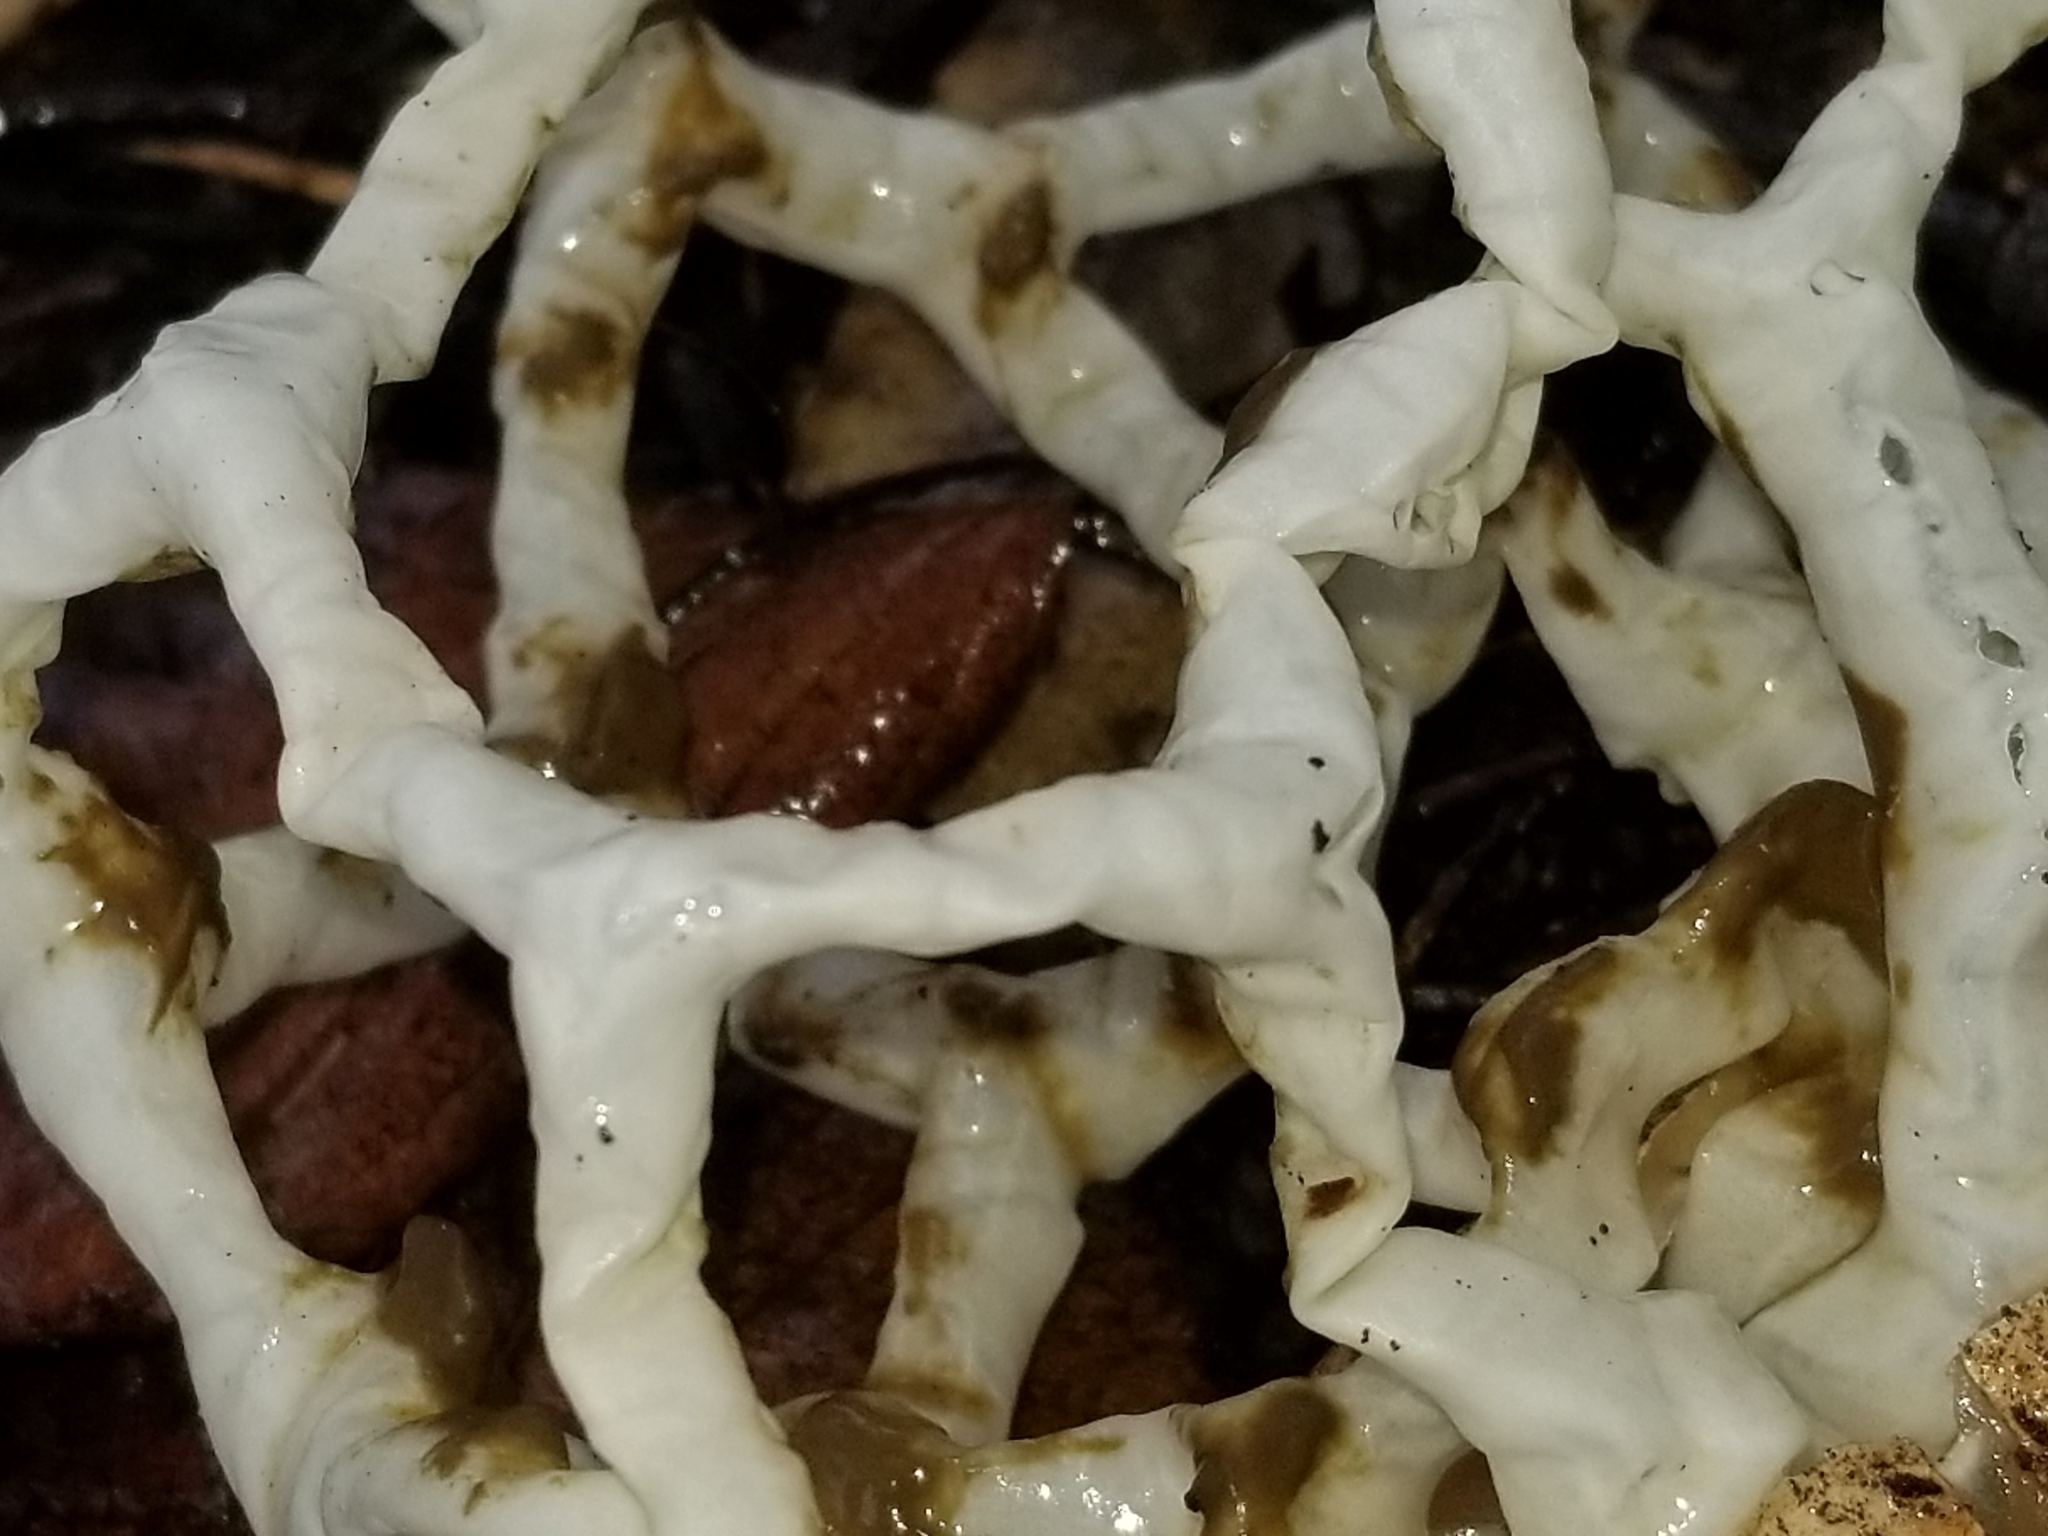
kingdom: Fungi
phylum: Basidiomycota
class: Agaricomycetes
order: Phallales
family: Phallaceae
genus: Ileodictyon
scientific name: Ileodictyon cibarium
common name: Basket fungus
